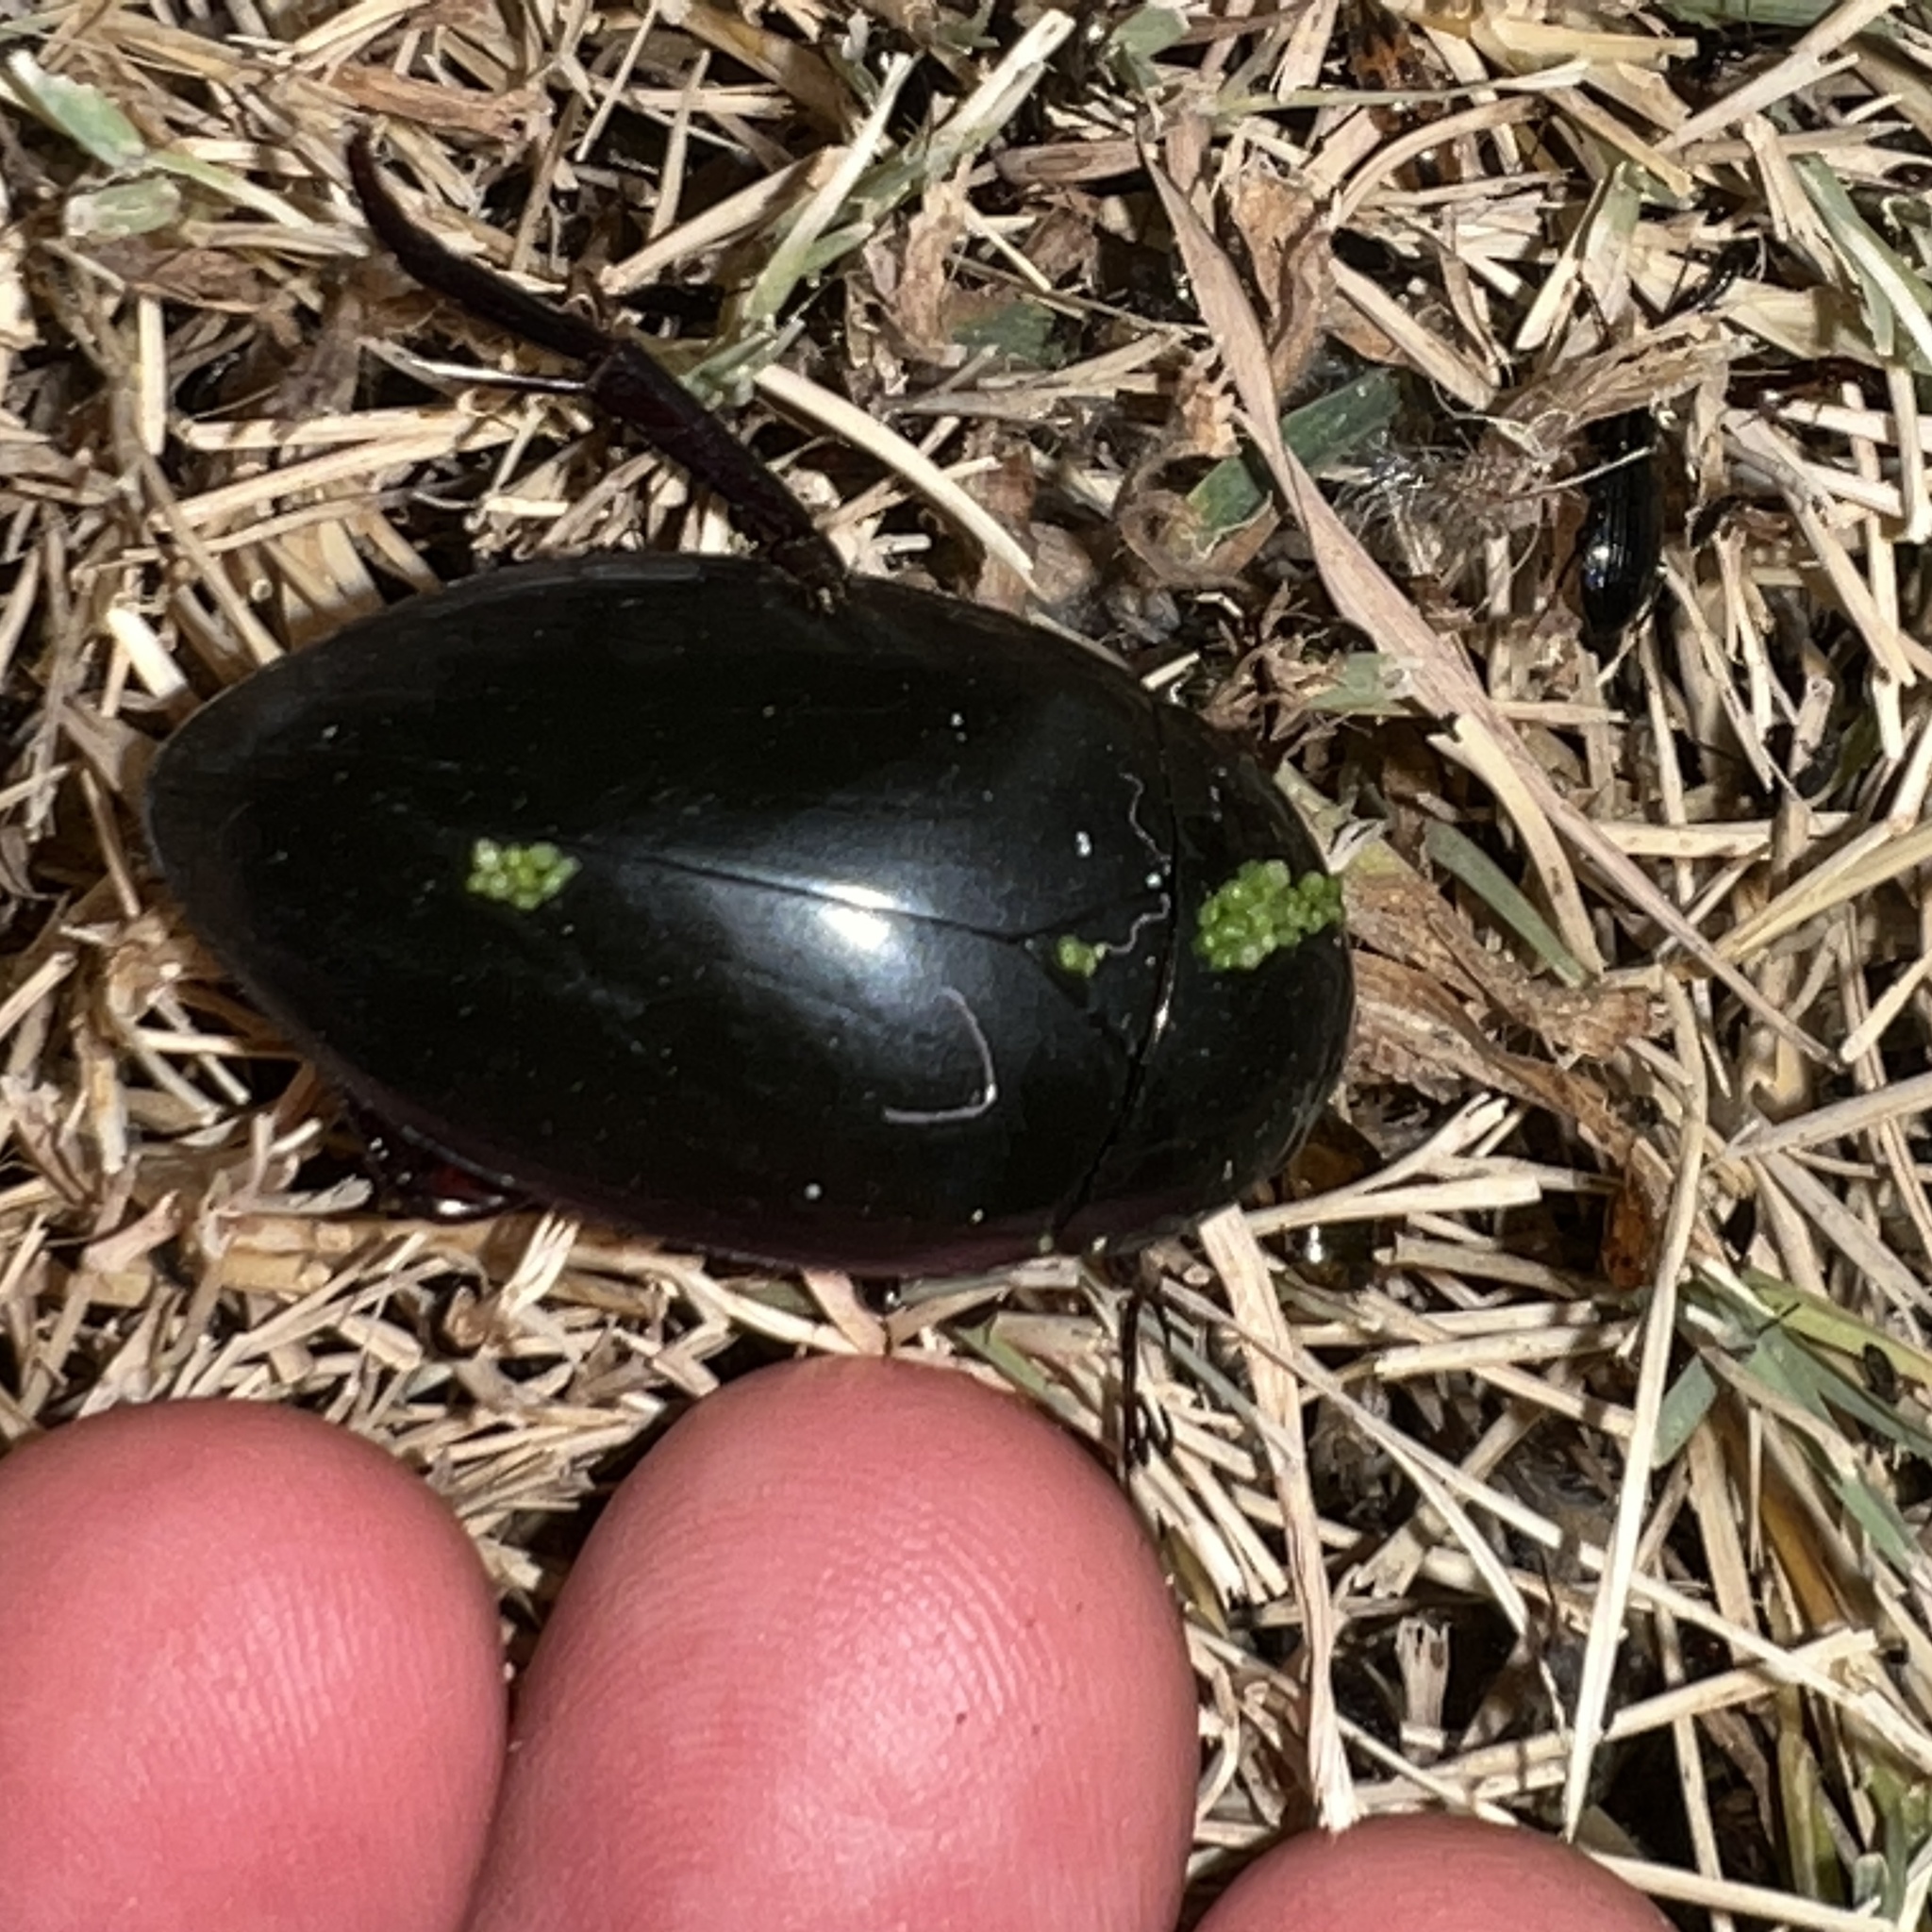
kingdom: Animalia
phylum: Arthropoda
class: Insecta
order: Coleoptera
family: Hydrophilidae
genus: Hydrophilus
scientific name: Hydrophilus
